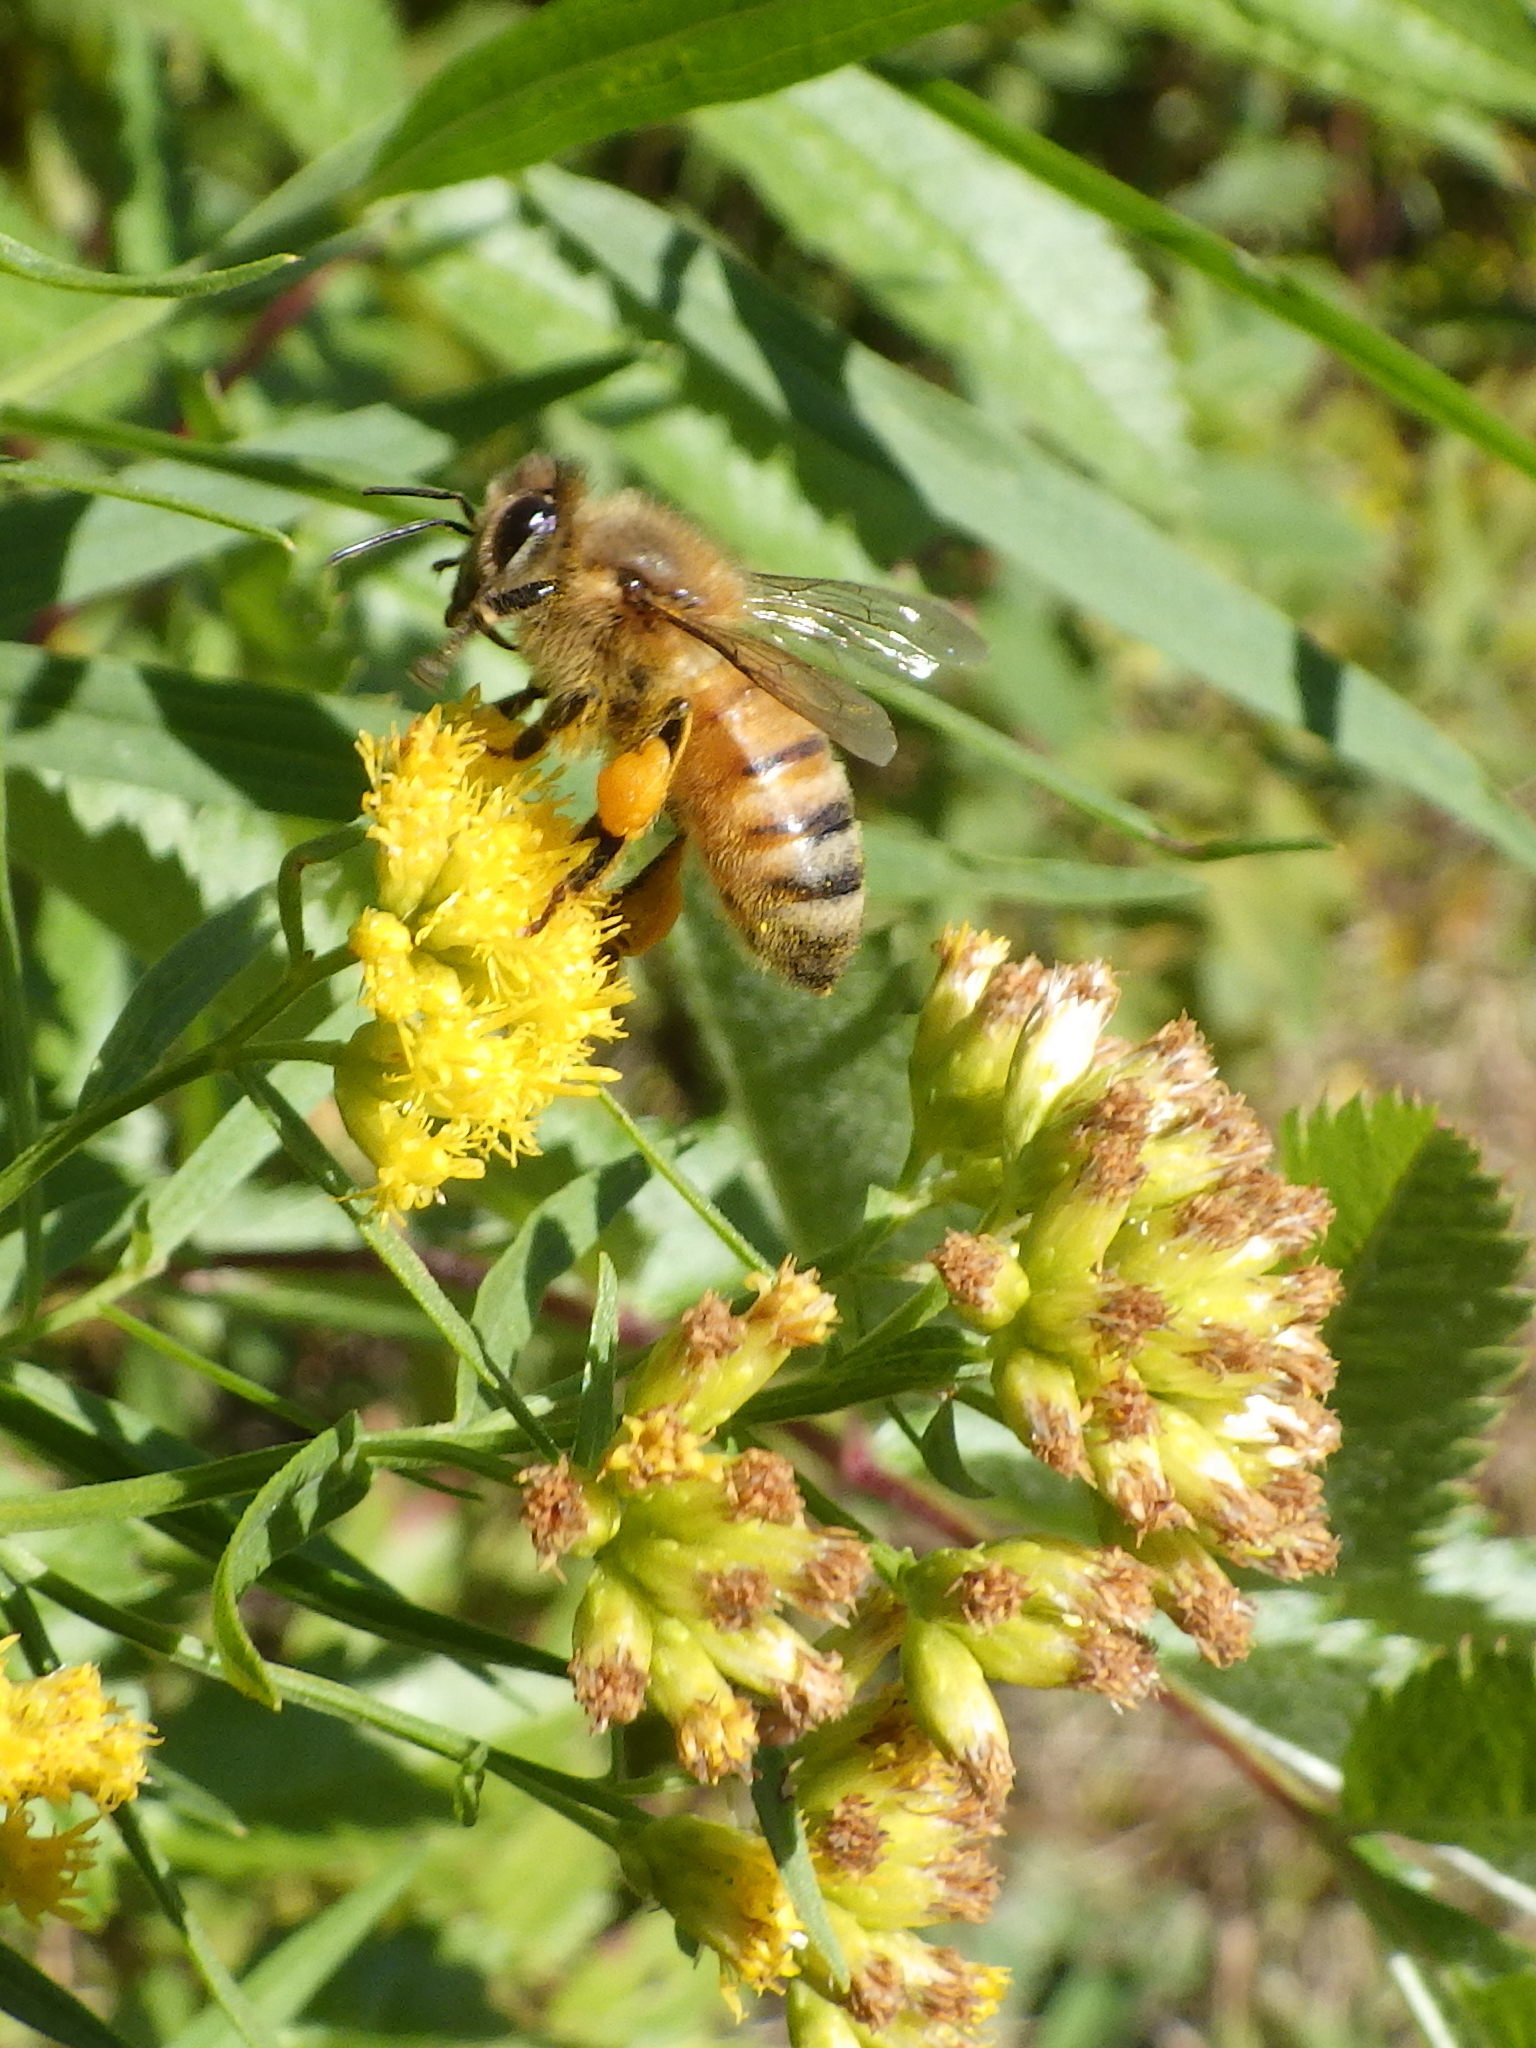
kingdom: Animalia
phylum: Arthropoda
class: Insecta
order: Hymenoptera
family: Apidae
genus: Apis
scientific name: Apis mellifera
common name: Honey bee
